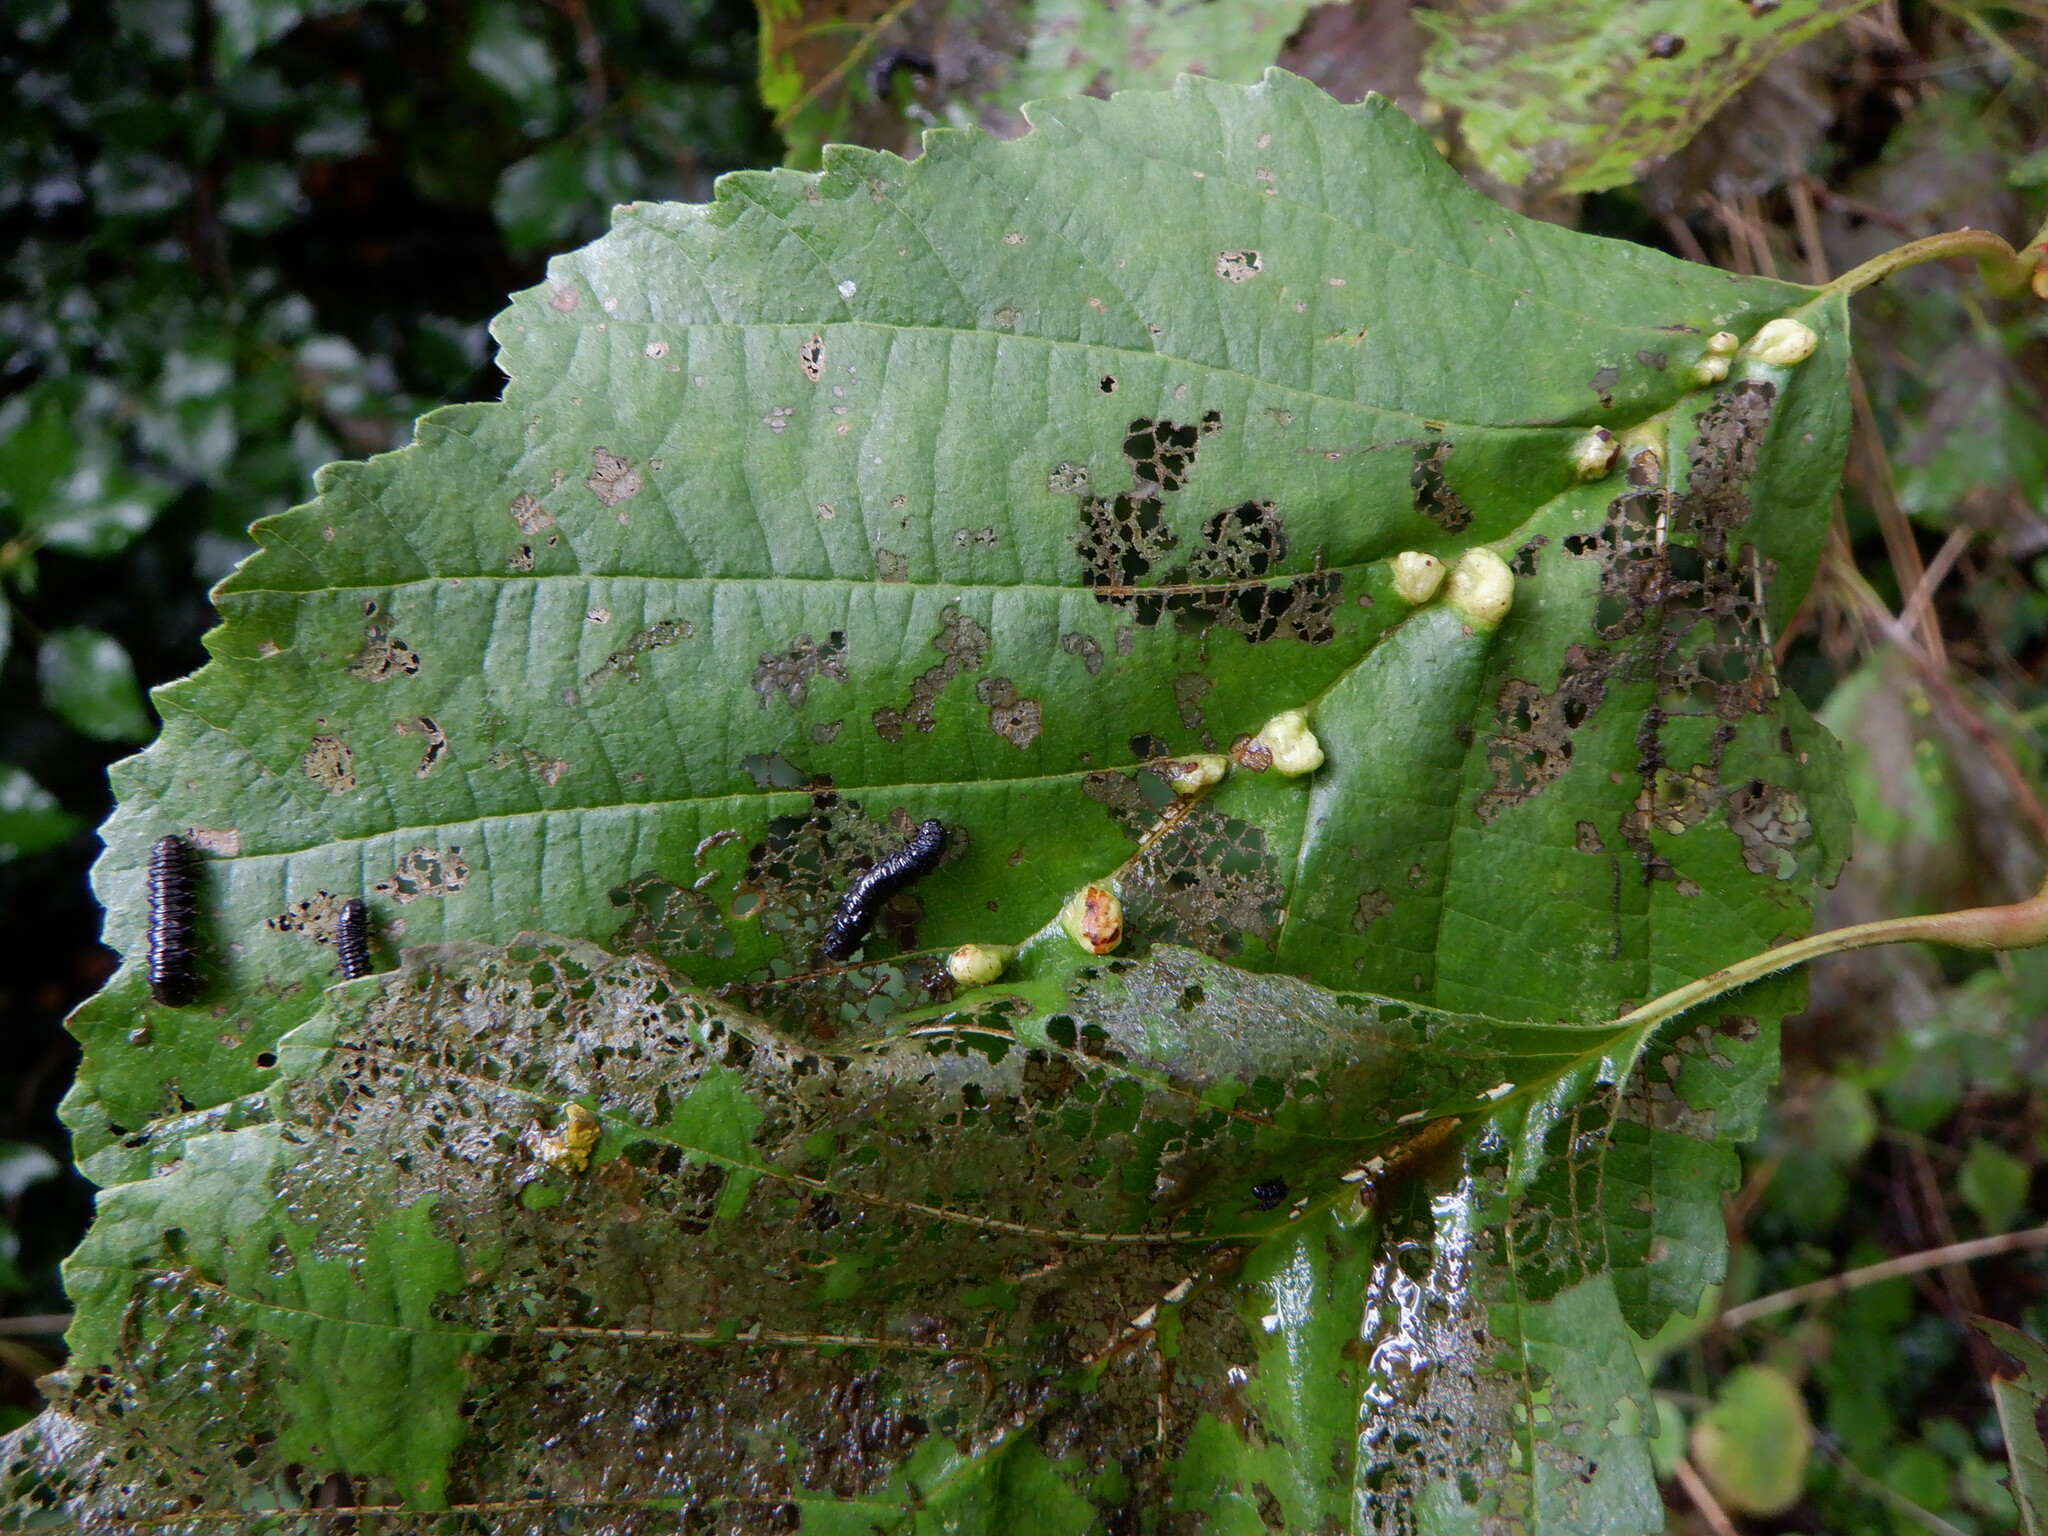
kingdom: Animalia
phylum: Arthropoda
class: Arachnida
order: Trombidiformes
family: Eriophyidae
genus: Eriophyes
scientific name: Eriophyes inangulis
